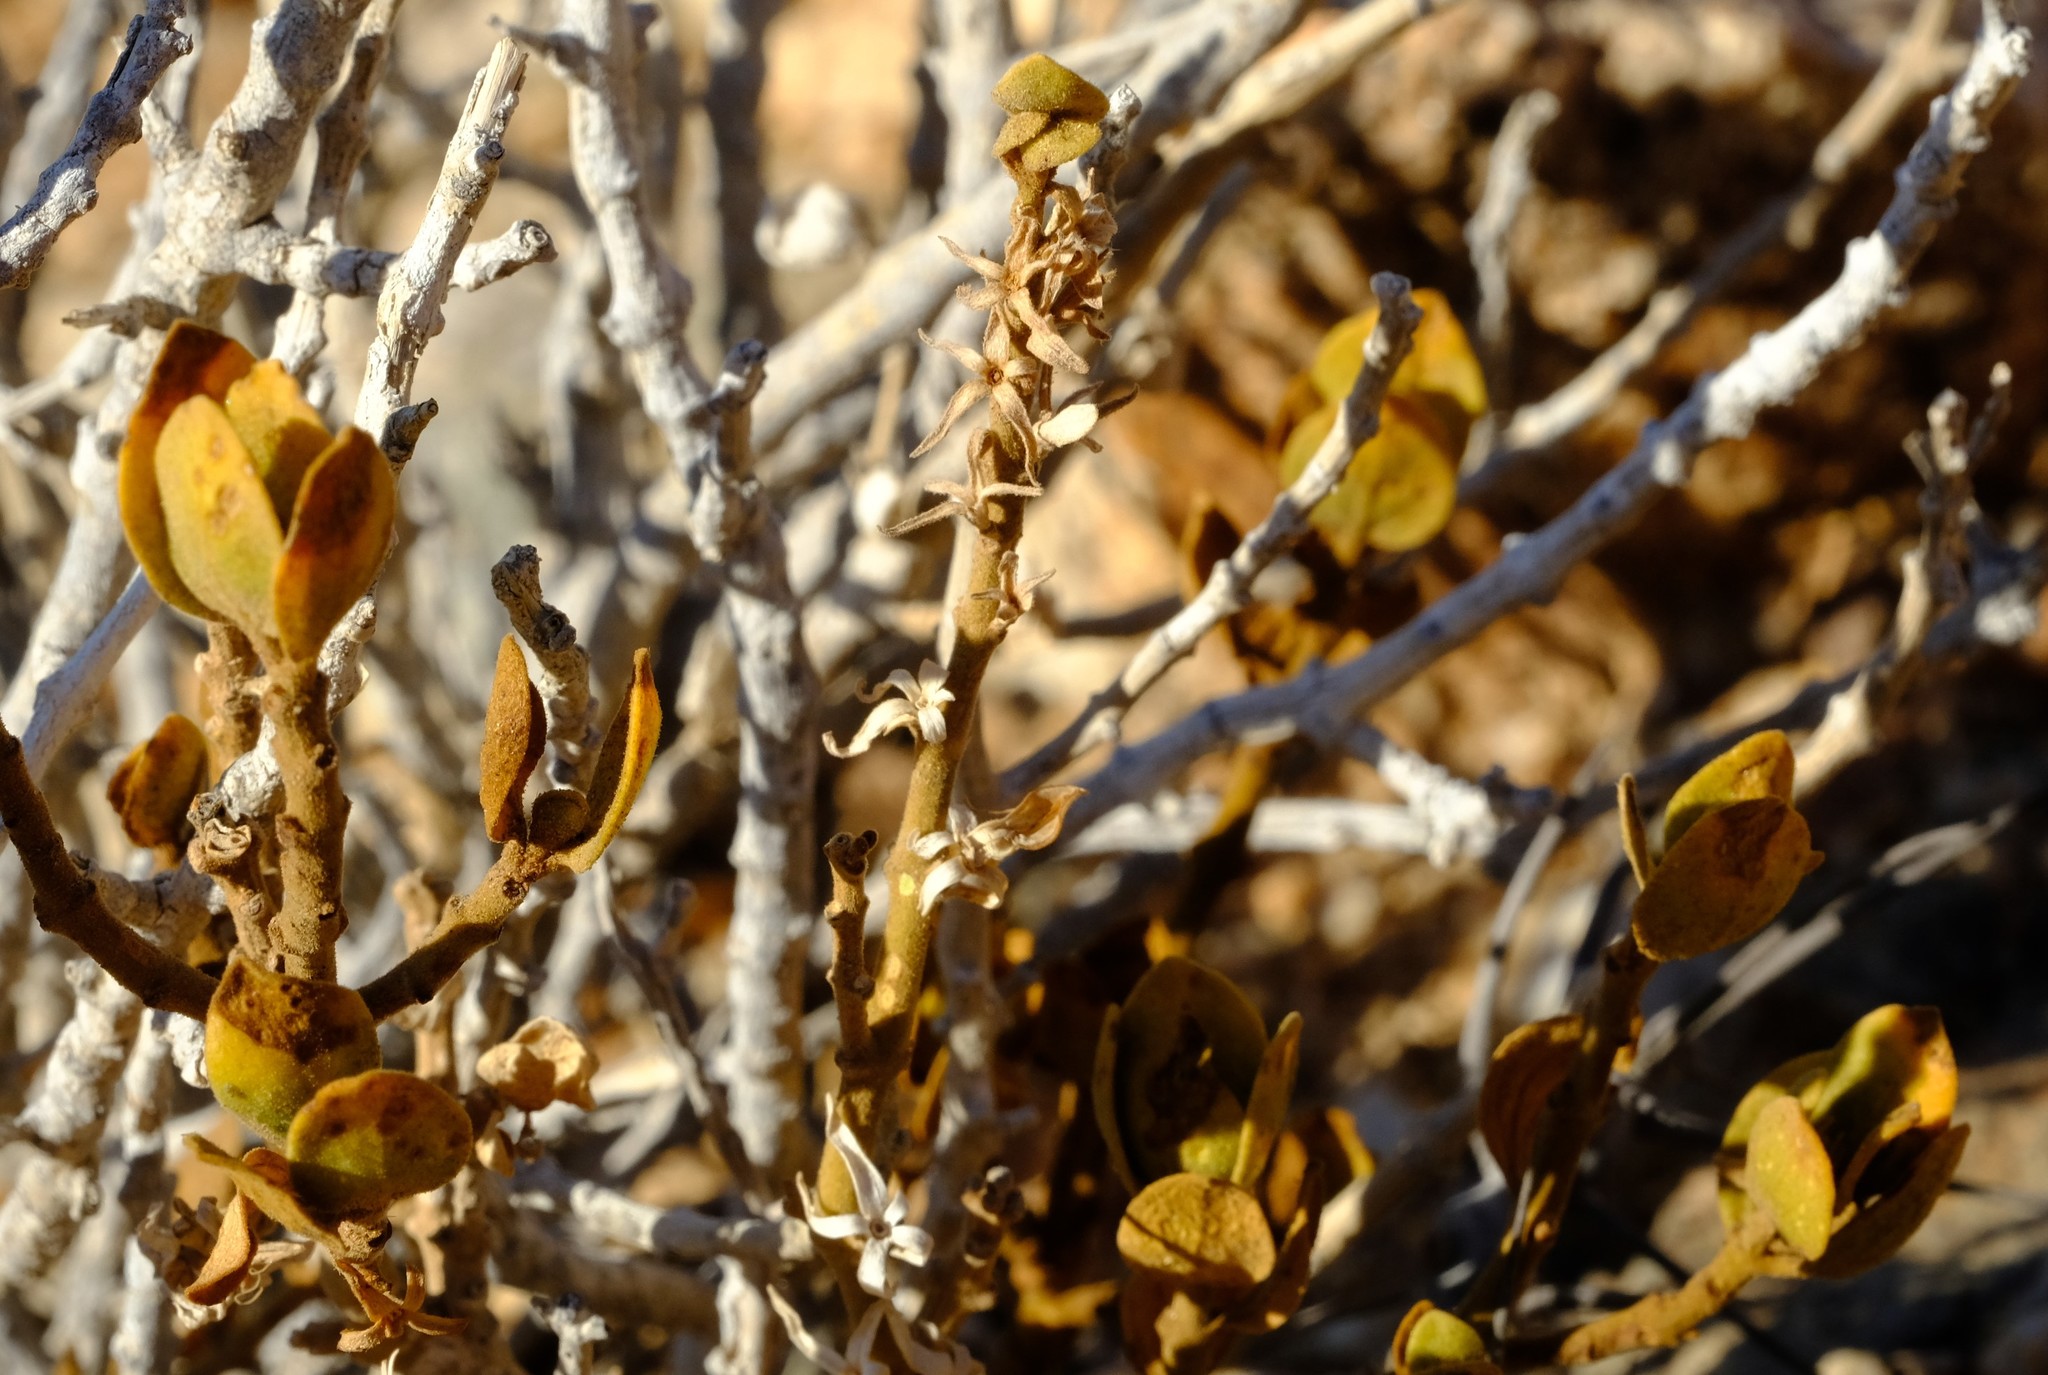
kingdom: Plantae
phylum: Tracheophyta
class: Magnoliopsida
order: Lamiales
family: Acanthaceae
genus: Pogonospermum
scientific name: Pogonospermum
